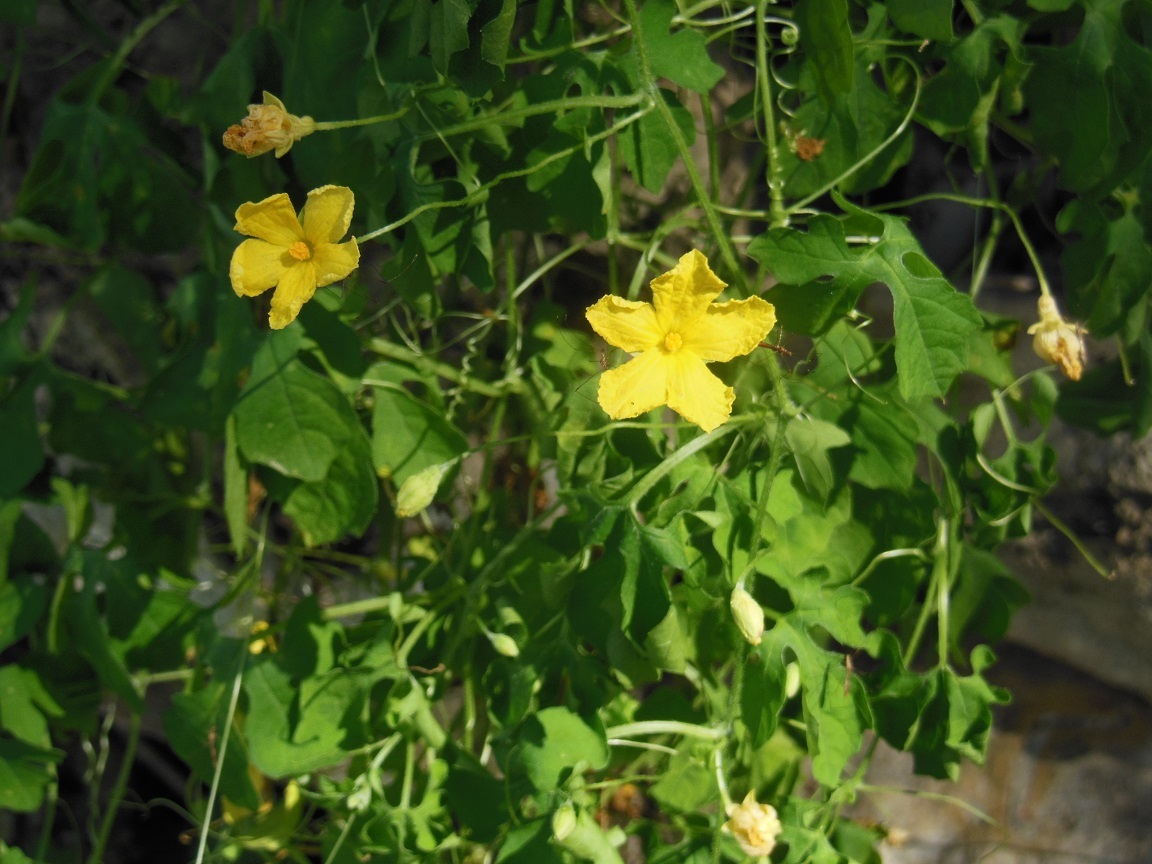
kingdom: Plantae
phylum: Tracheophyta
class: Magnoliopsida
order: Cucurbitales
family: Cucurbitaceae
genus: Momordica
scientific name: Momordica charantia
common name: Balsampear
